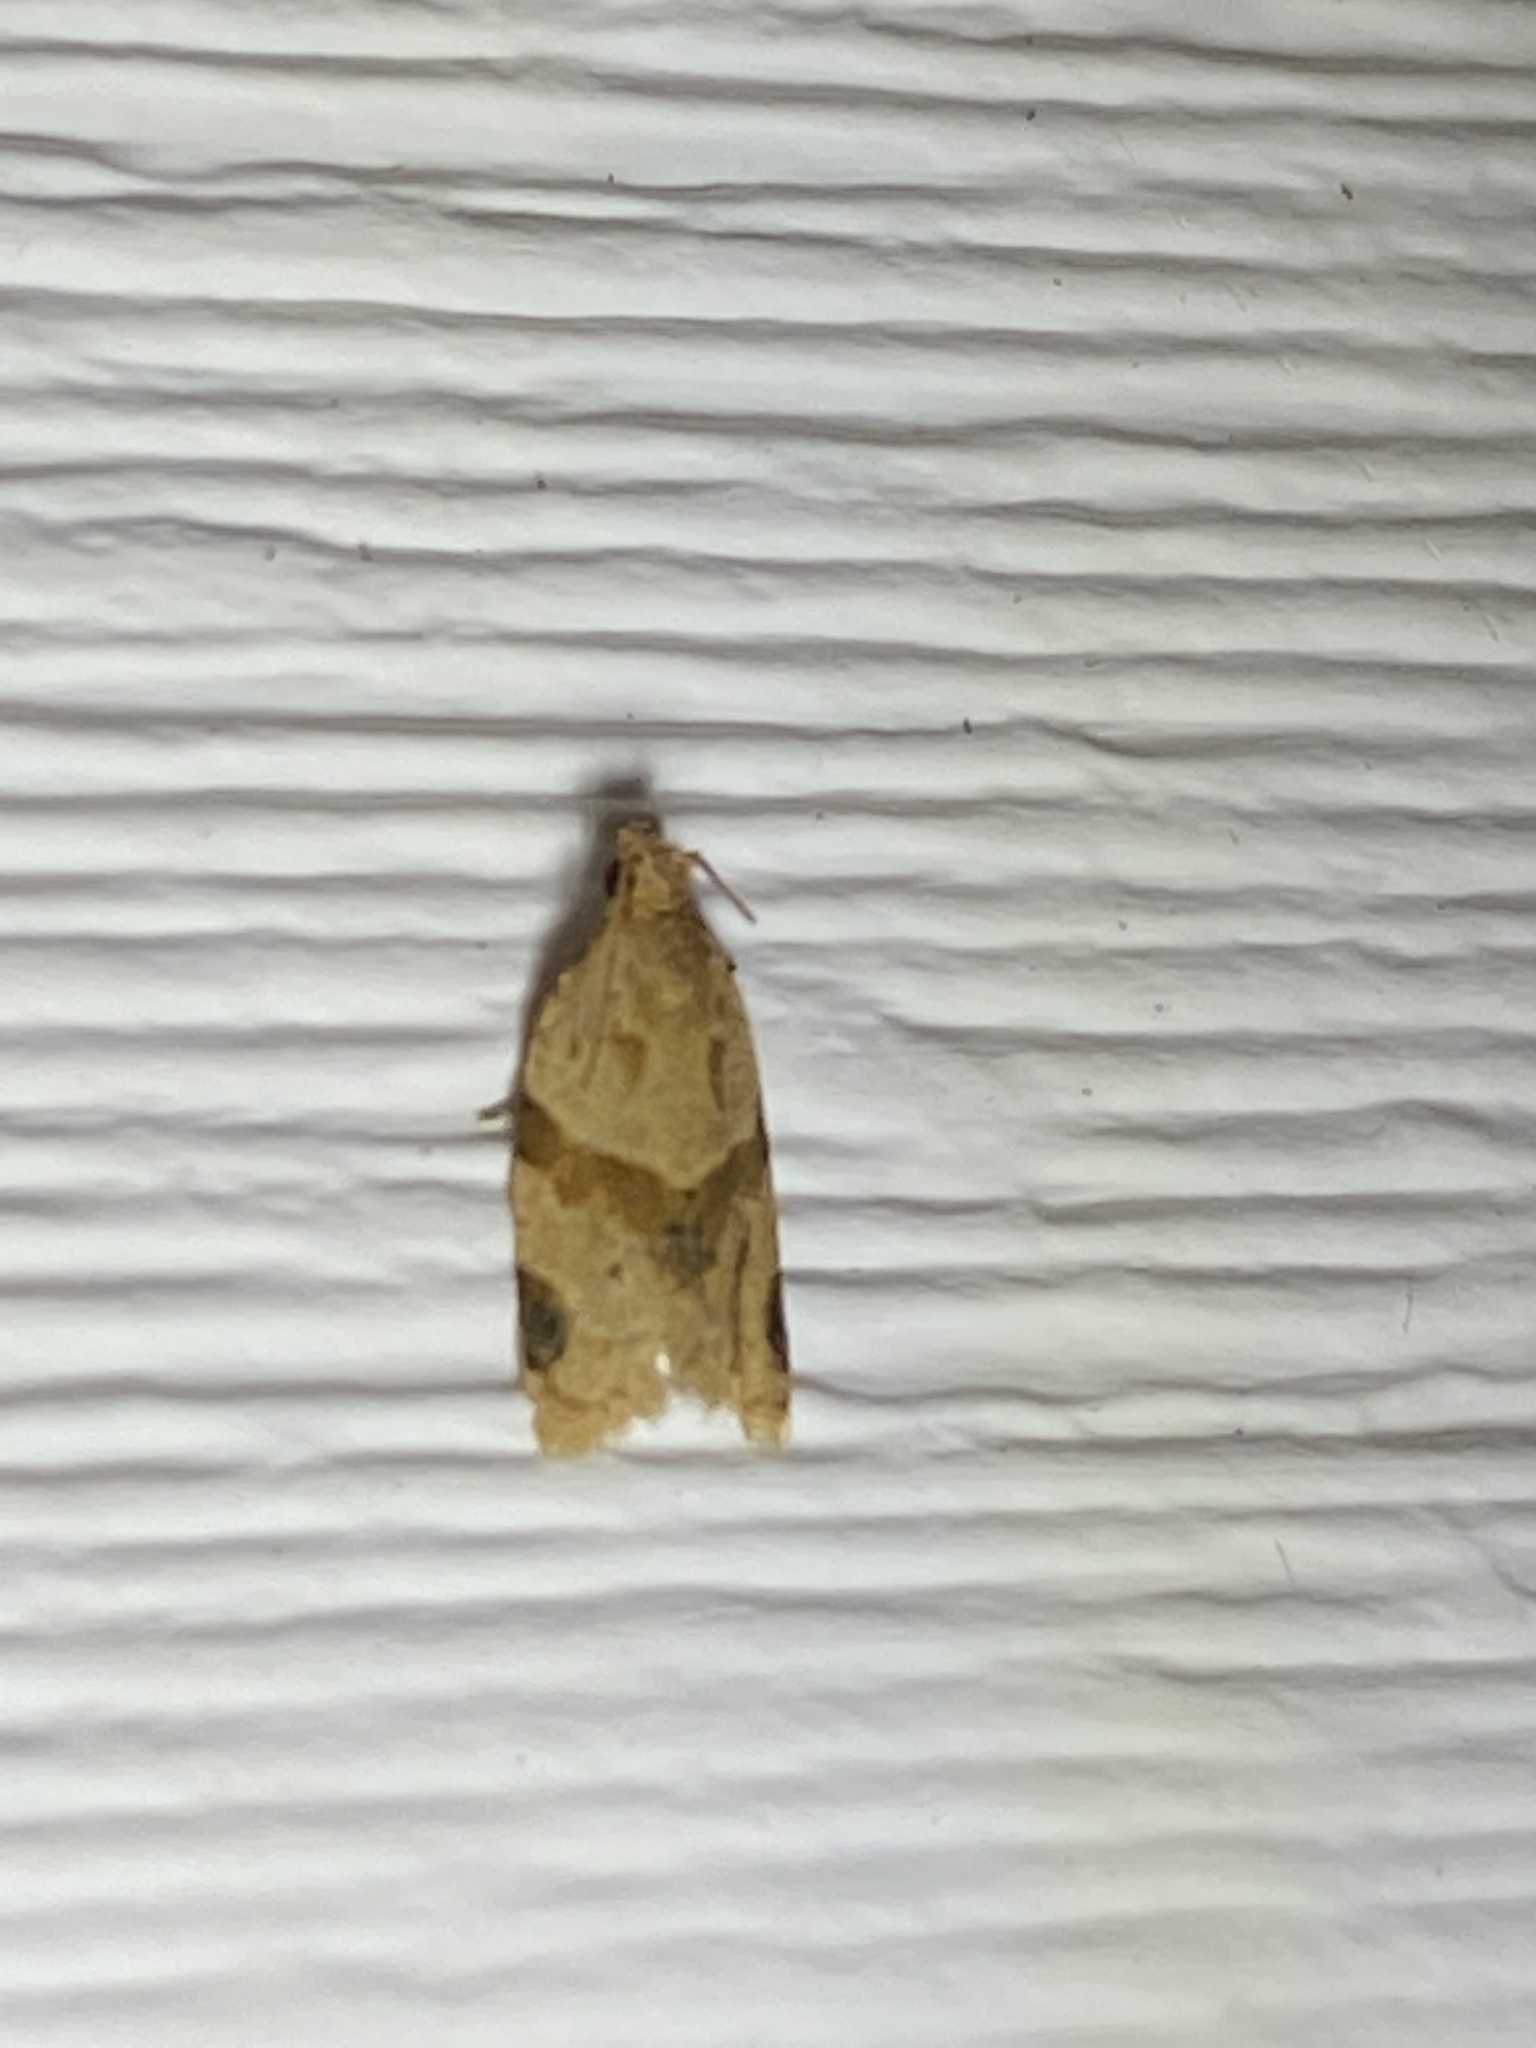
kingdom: Animalia
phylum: Arthropoda
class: Insecta
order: Lepidoptera
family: Tortricidae
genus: Clepsis
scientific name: Clepsis peritana
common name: Garden tortrix
